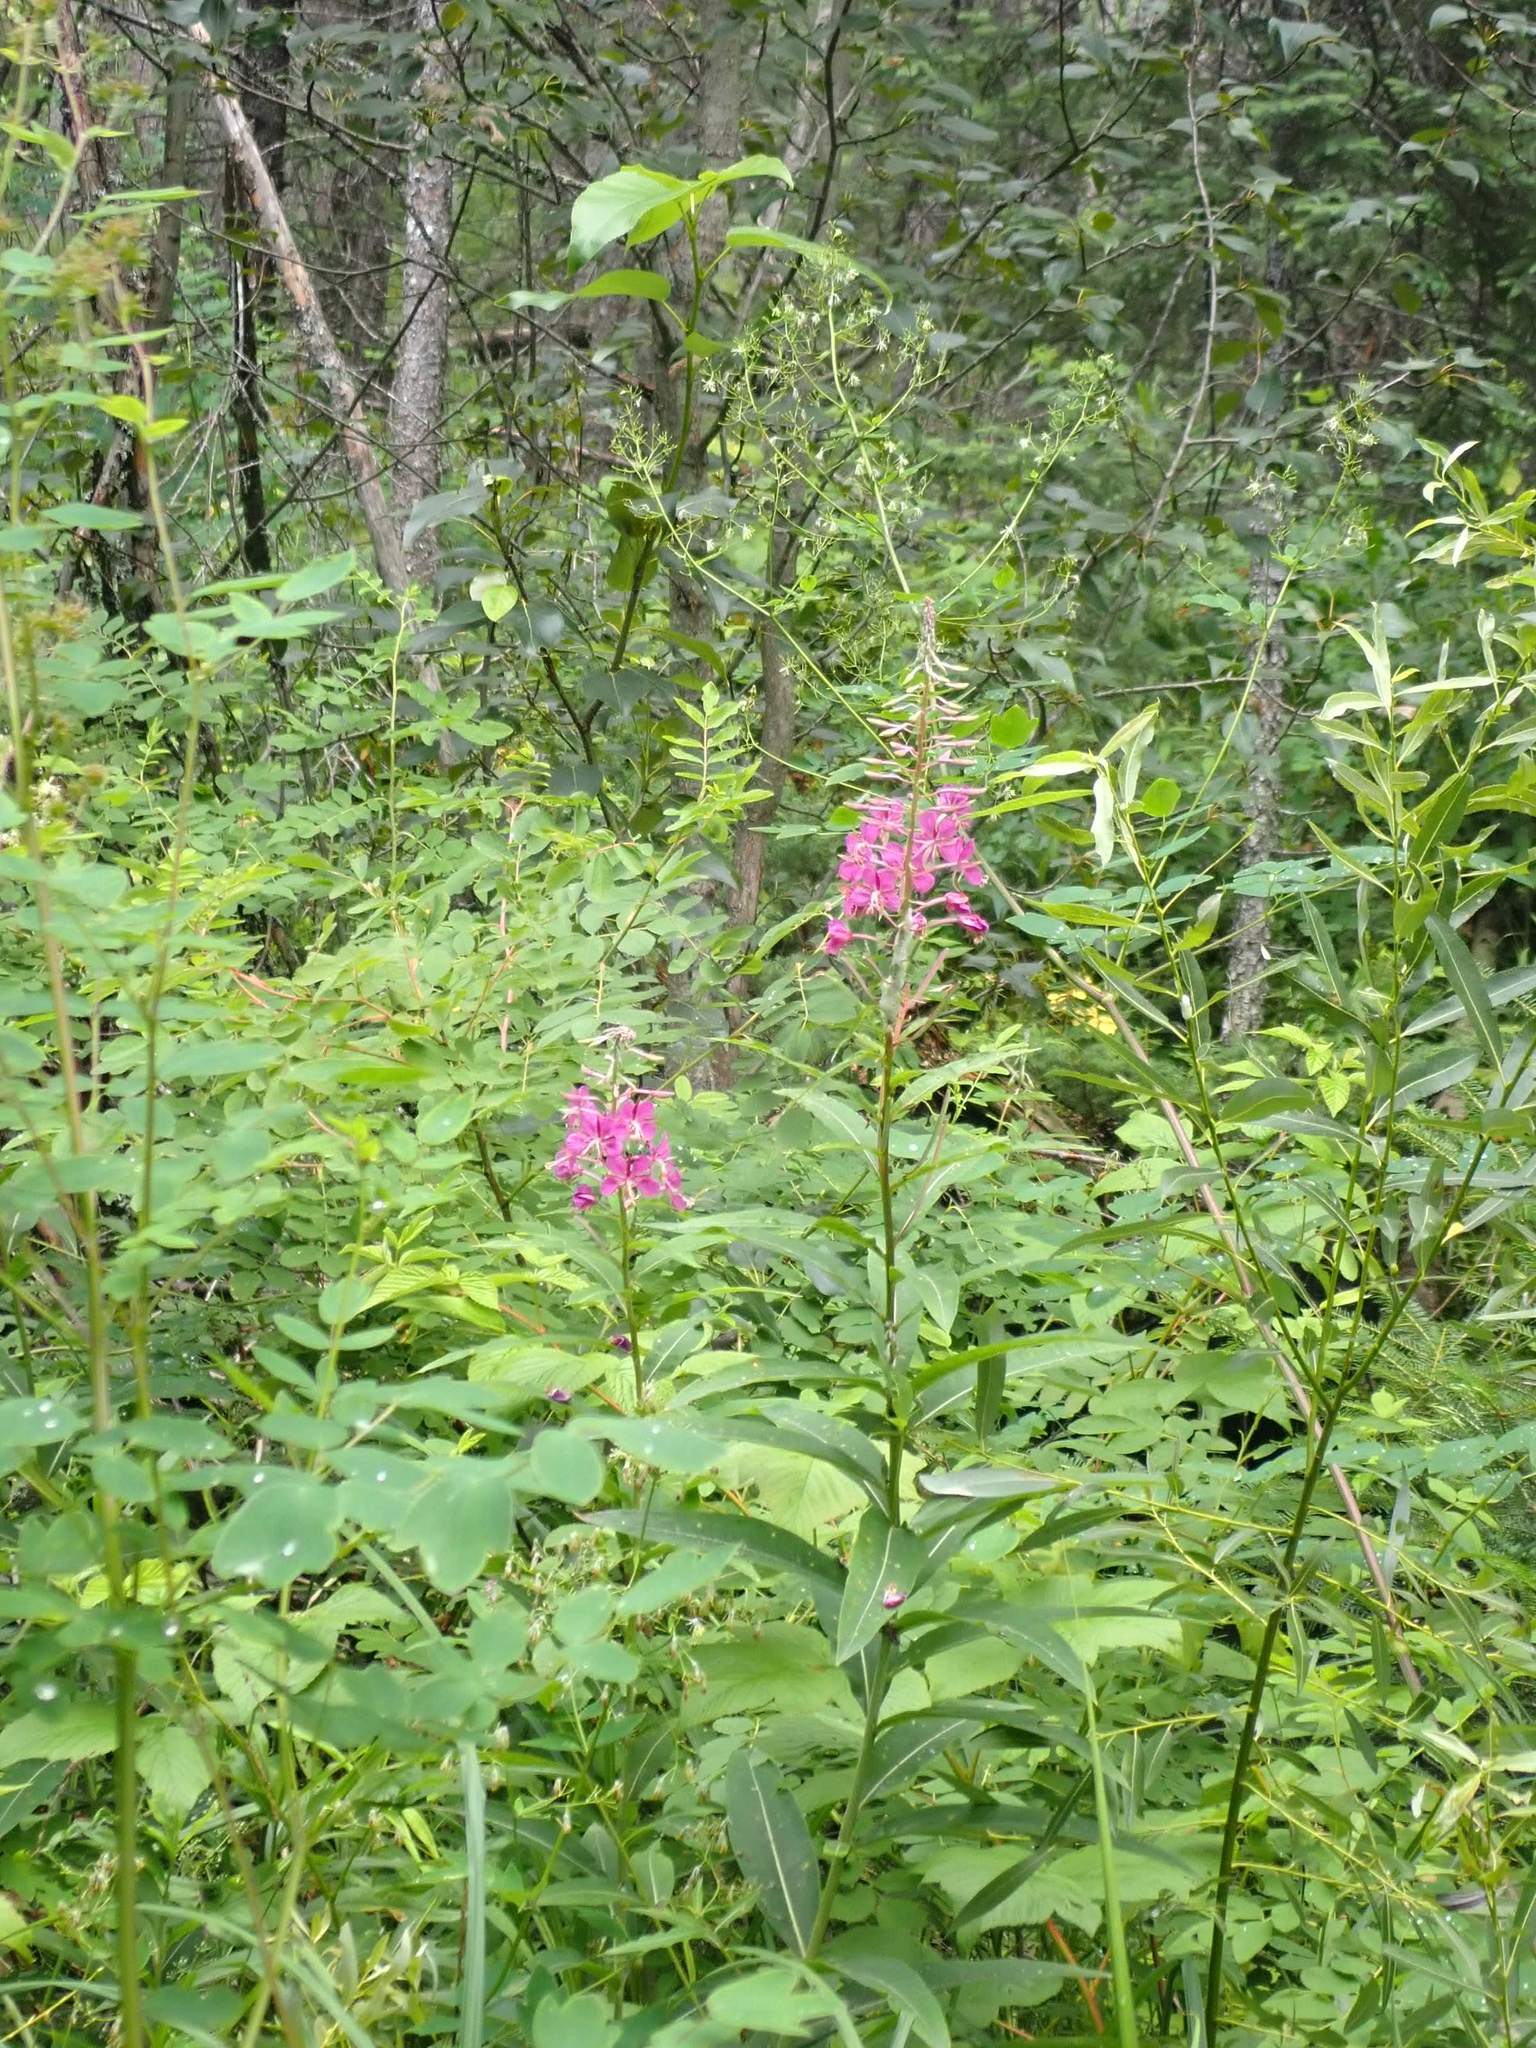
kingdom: Plantae
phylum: Tracheophyta
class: Magnoliopsida
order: Myrtales
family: Onagraceae
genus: Chamaenerion
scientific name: Chamaenerion angustifolium
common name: Fireweed
